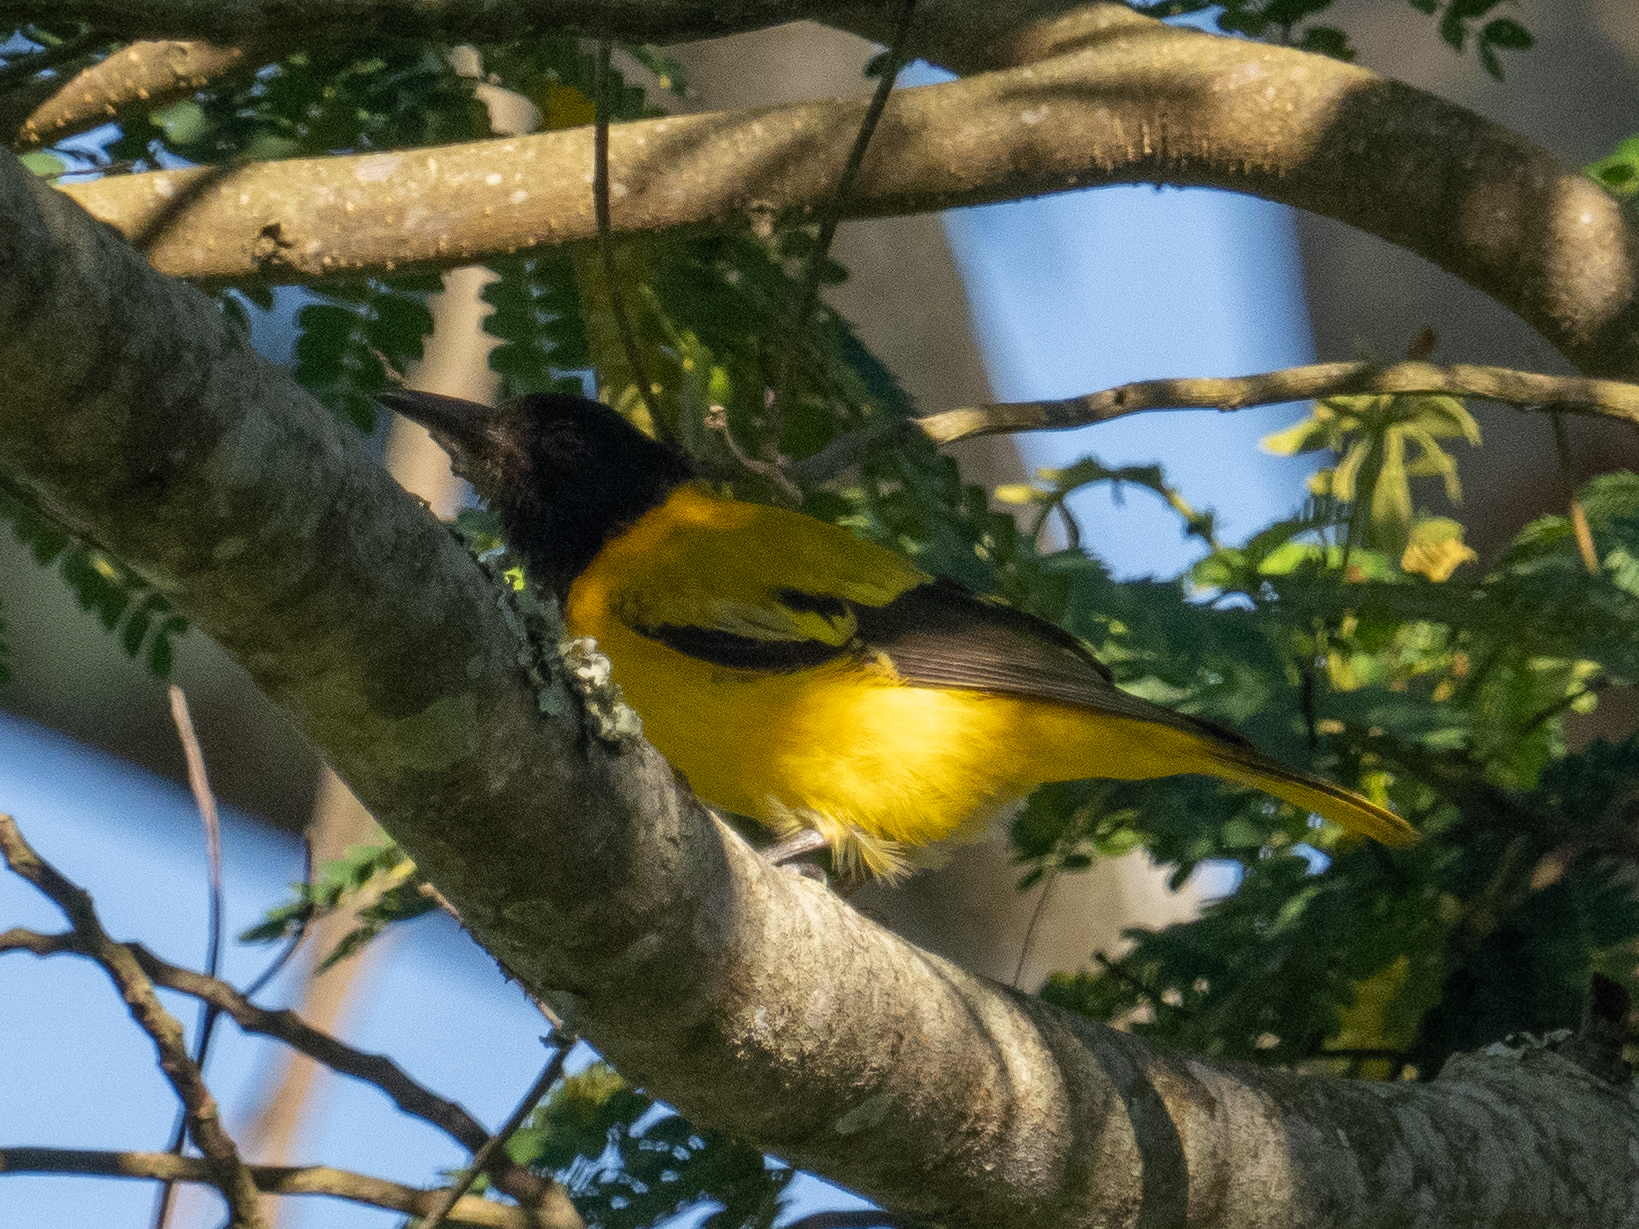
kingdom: Animalia
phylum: Chordata
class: Aves
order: Passeriformes
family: Oriolidae
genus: Oriolus
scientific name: Oriolus xanthornus
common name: Black-hooded oriole
